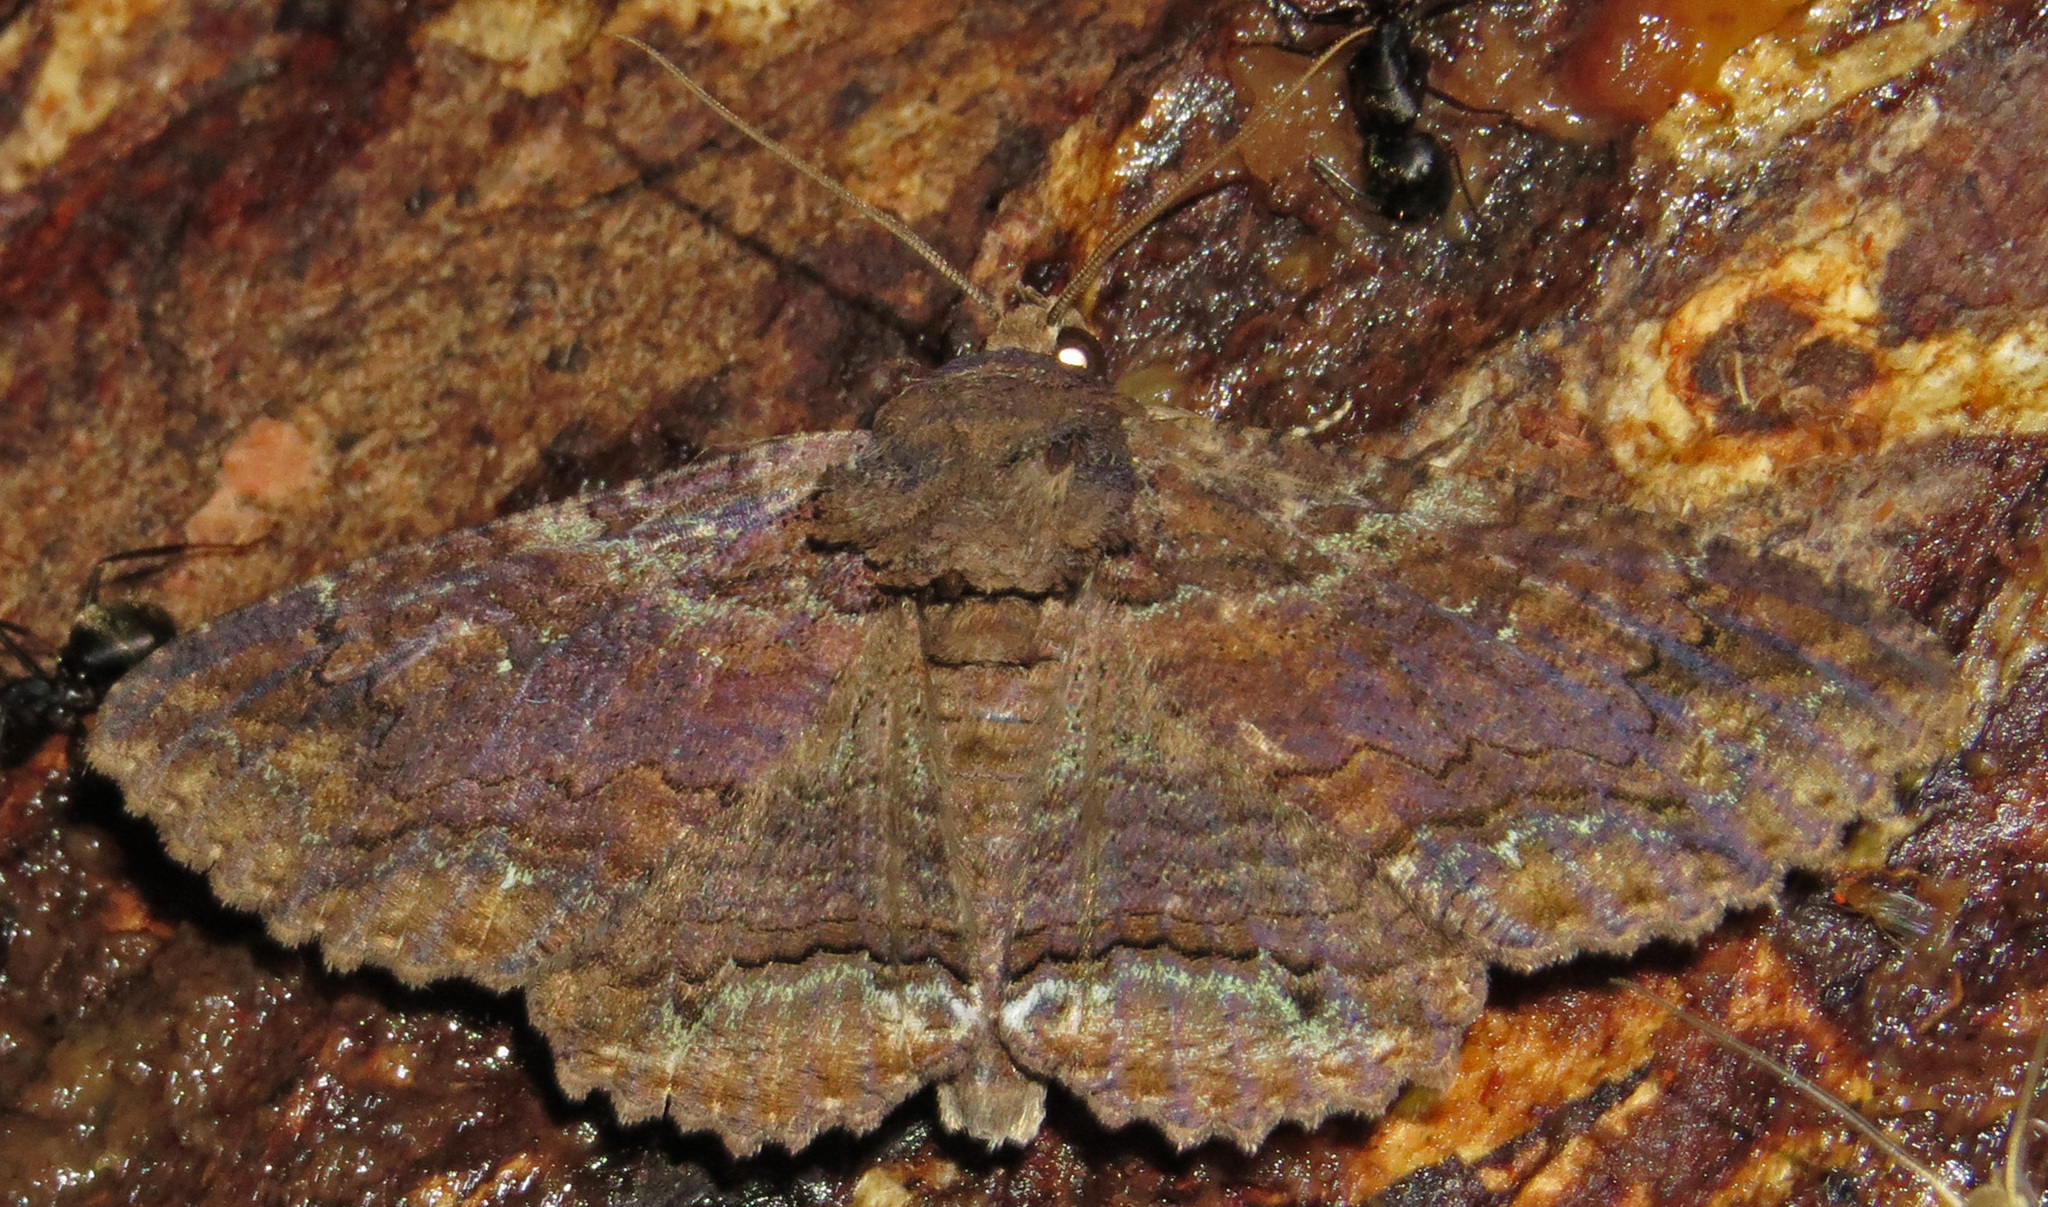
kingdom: Animalia
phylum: Arthropoda
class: Insecta
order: Lepidoptera
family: Erebidae
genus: Zale
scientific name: Zale lunata
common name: Lunate zale moth
